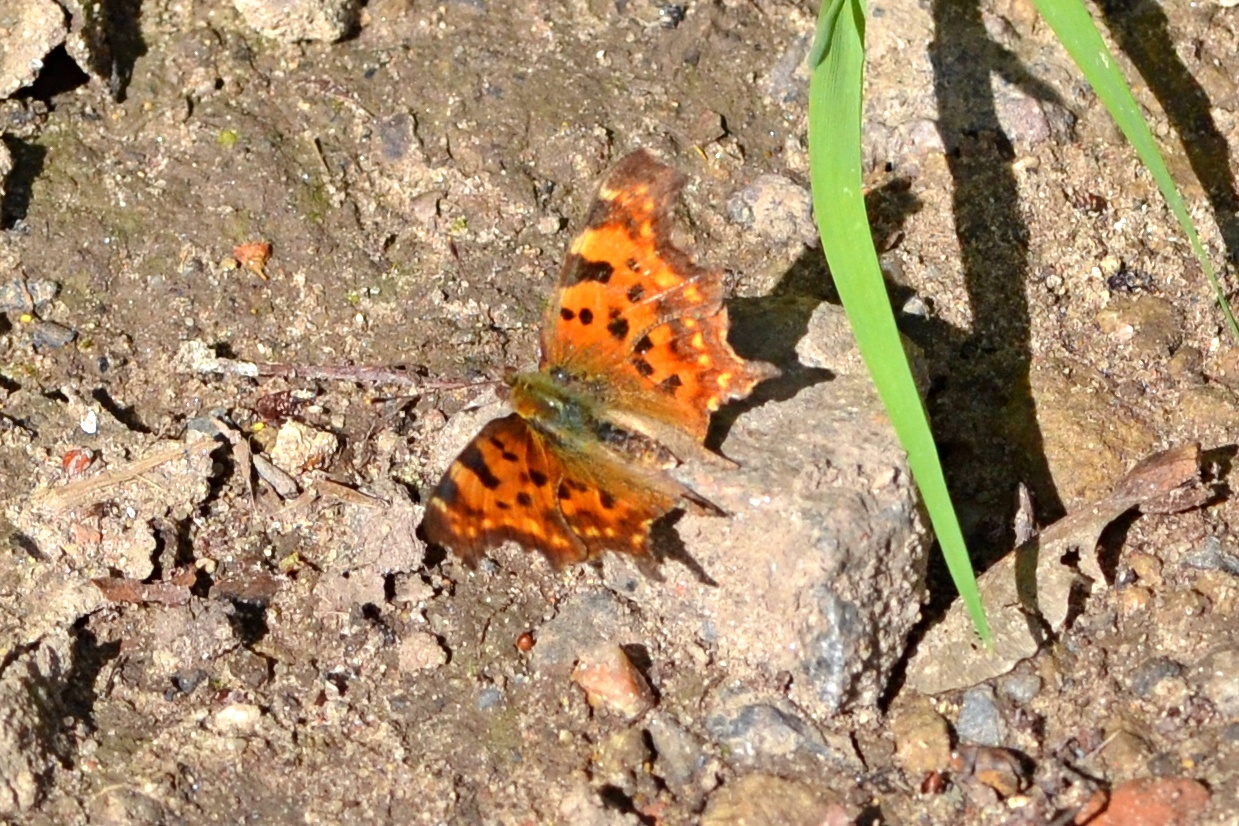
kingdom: Animalia
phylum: Arthropoda
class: Insecta
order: Lepidoptera
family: Nymphalidae
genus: Polygonia
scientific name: Polygonia c-album
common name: Comma
